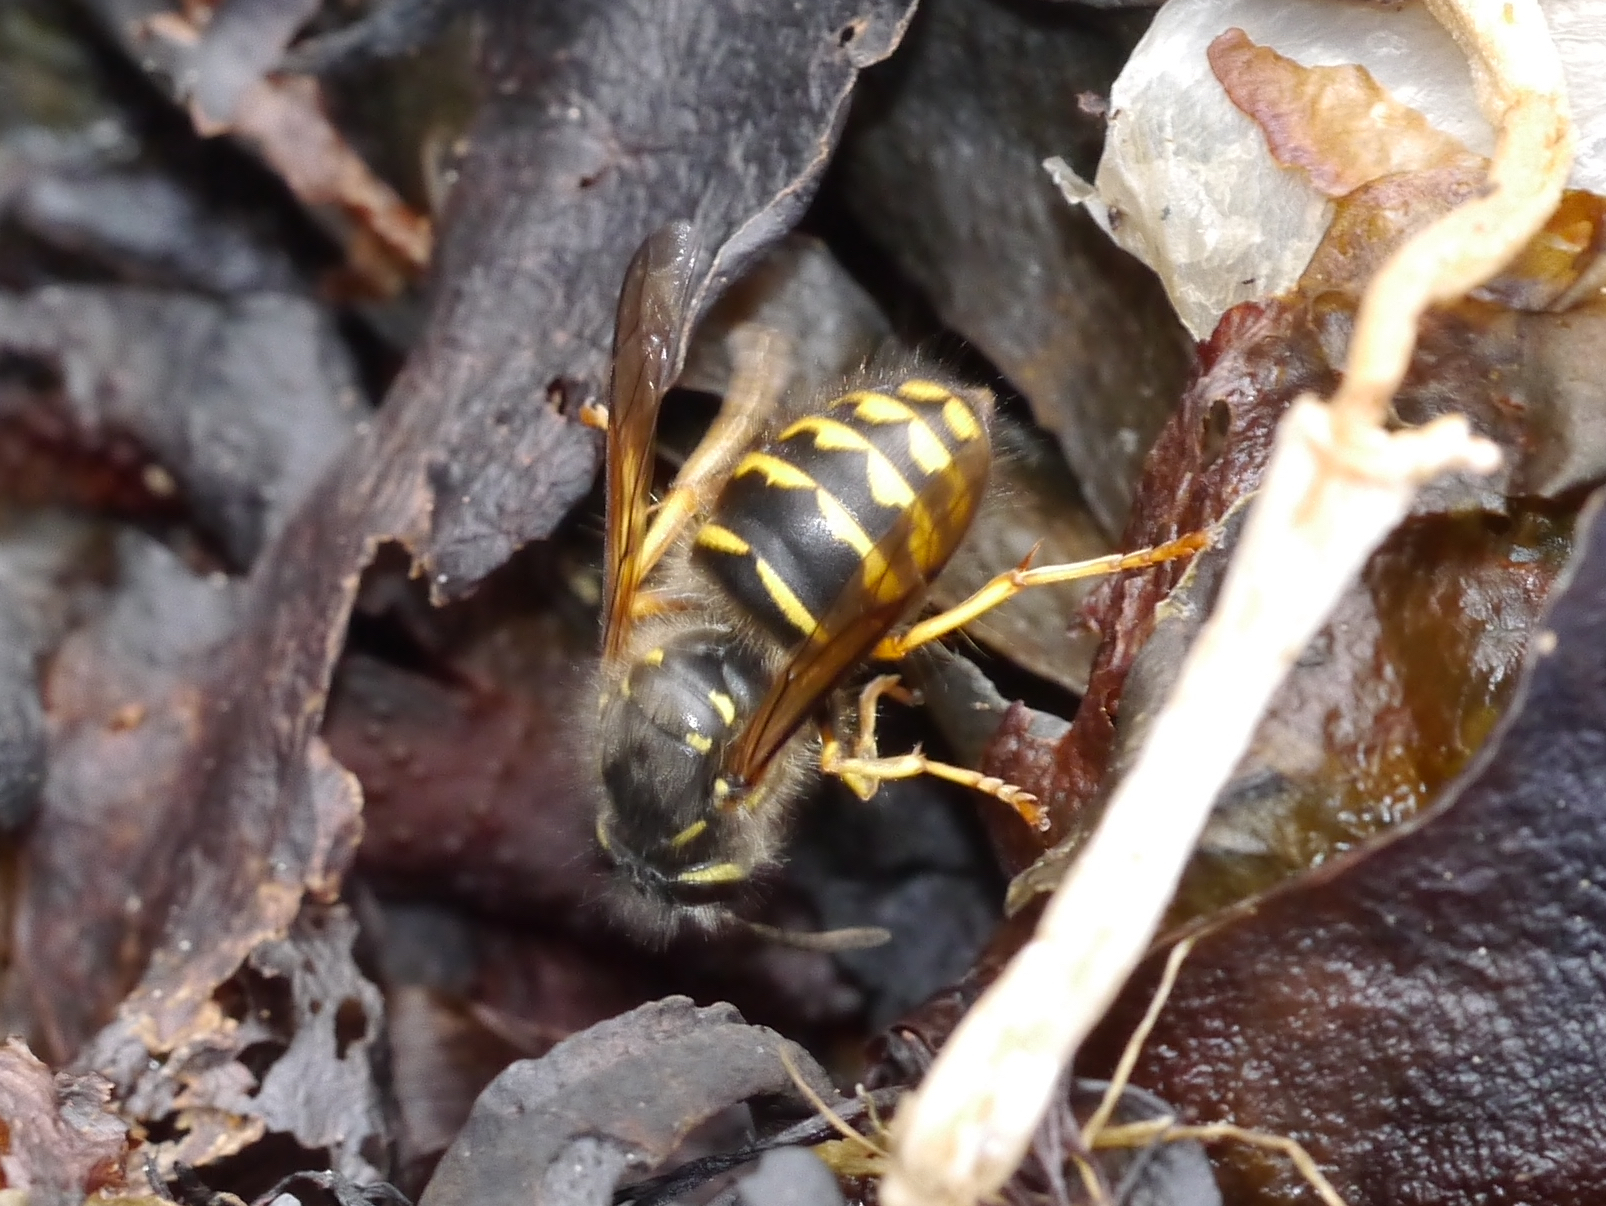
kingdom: Animalia
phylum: Arthropoda
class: Insecta
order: Hymenoptera
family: Vespidae
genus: Dolichovespula
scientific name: Dolichovespula arenaria
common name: Aerial yellowjacket
